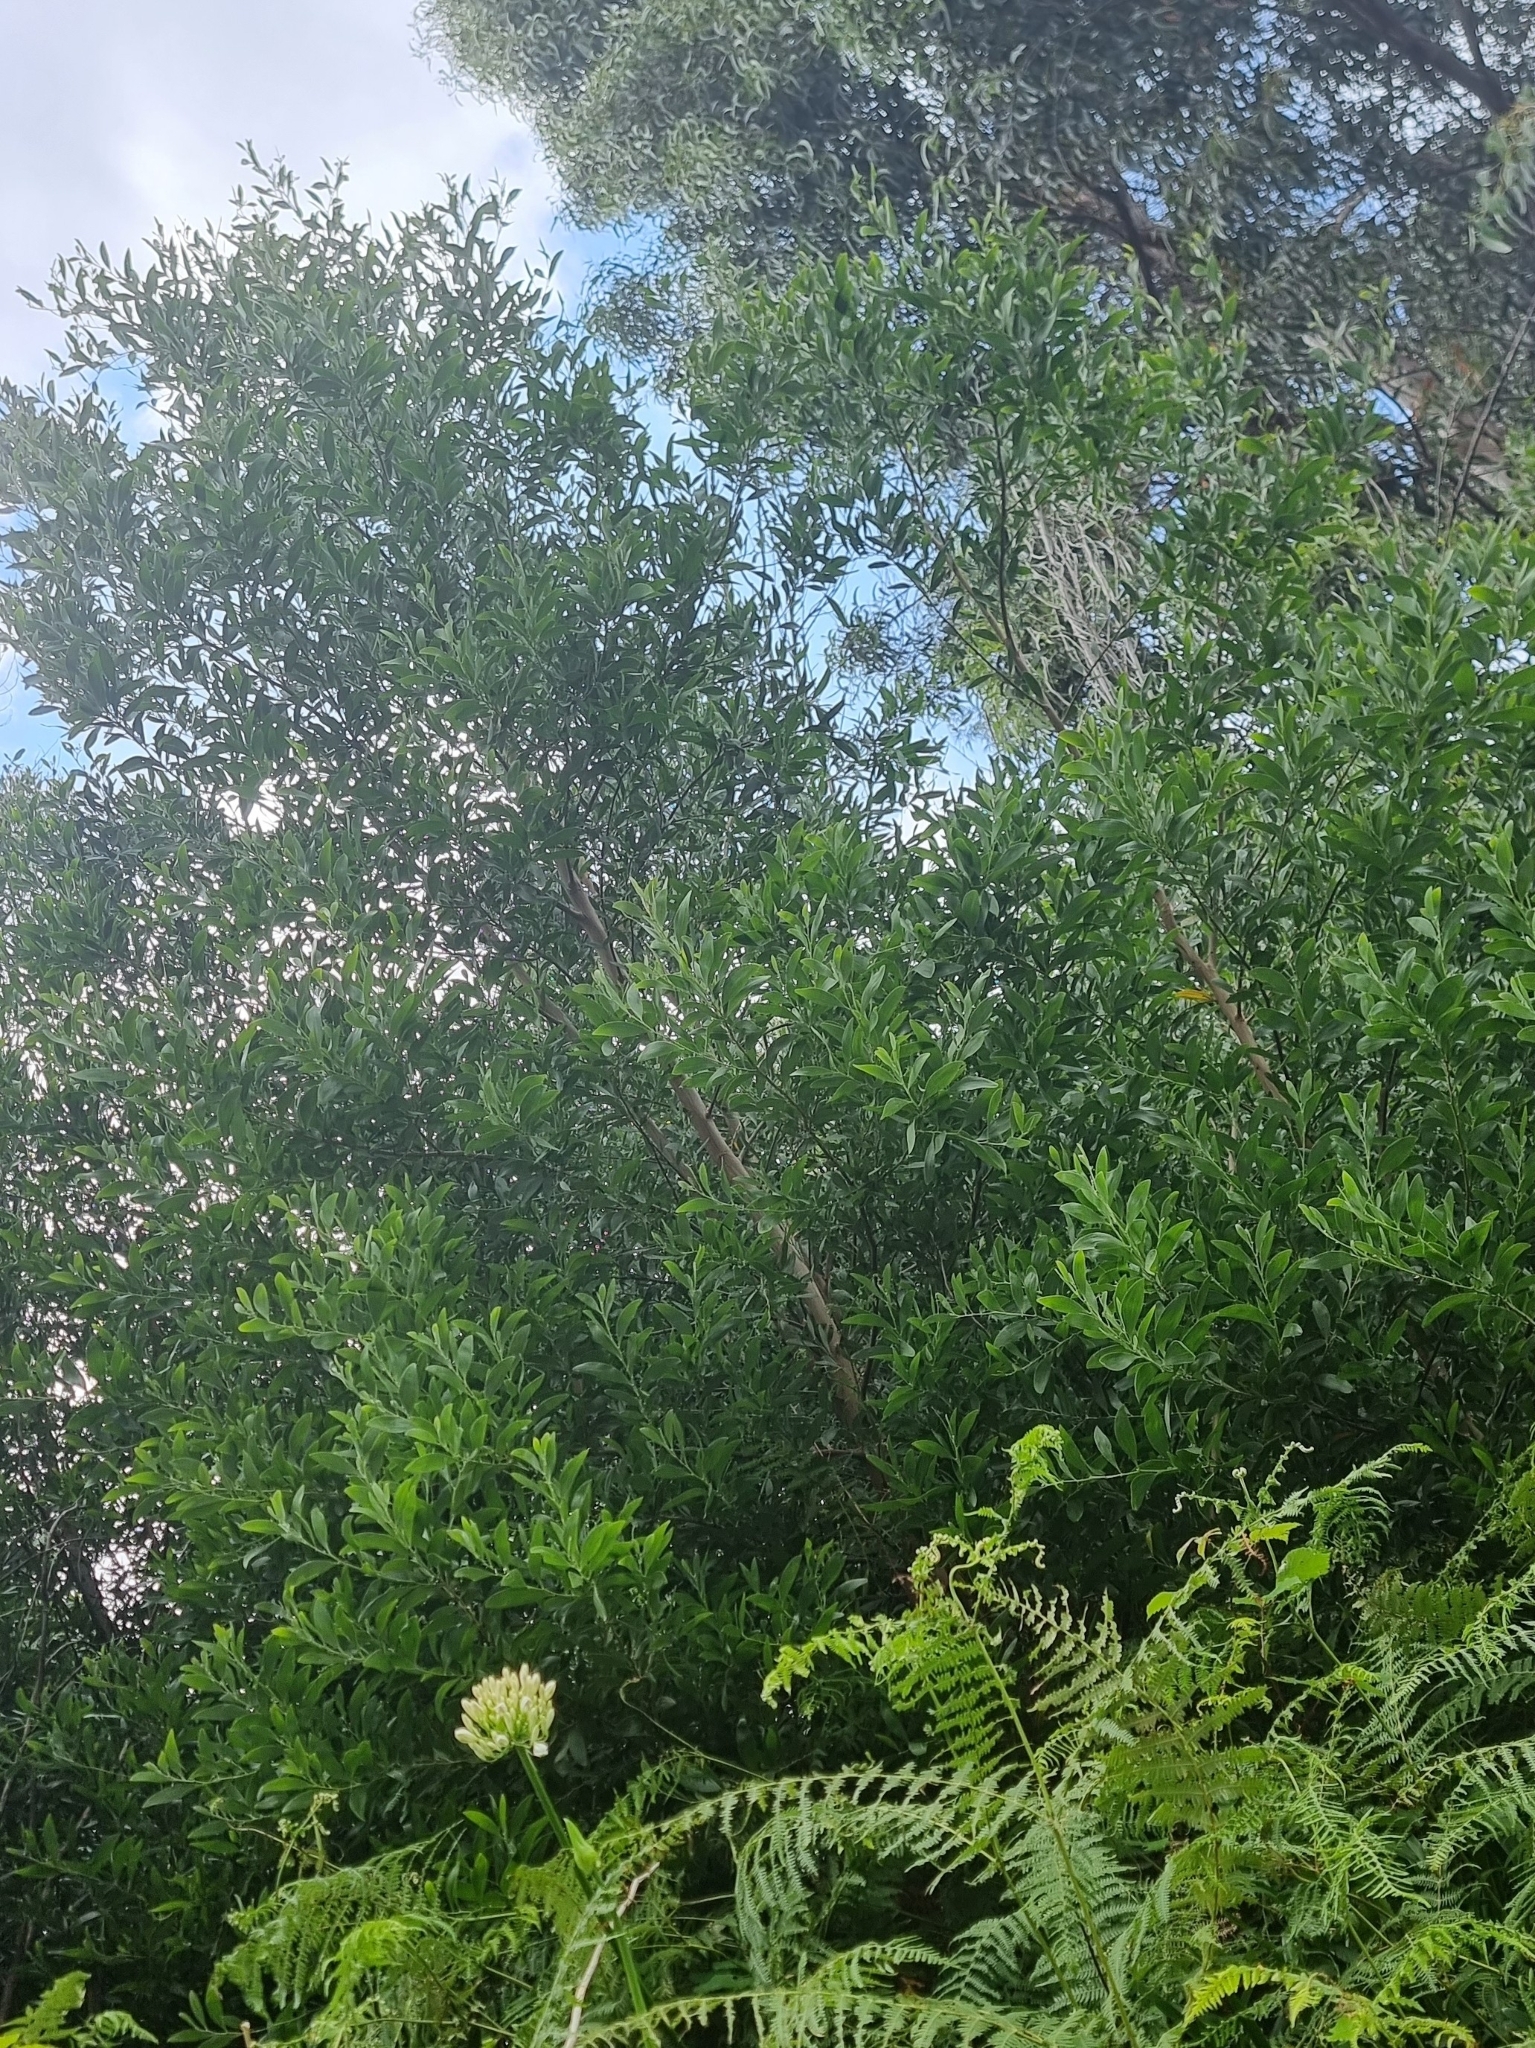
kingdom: Plantae
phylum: Tracheophyta
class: Magnoliopsida
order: Fabales
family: Fabaceae
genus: Acacia
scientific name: Acacia melanoxylon
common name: Blackwood
